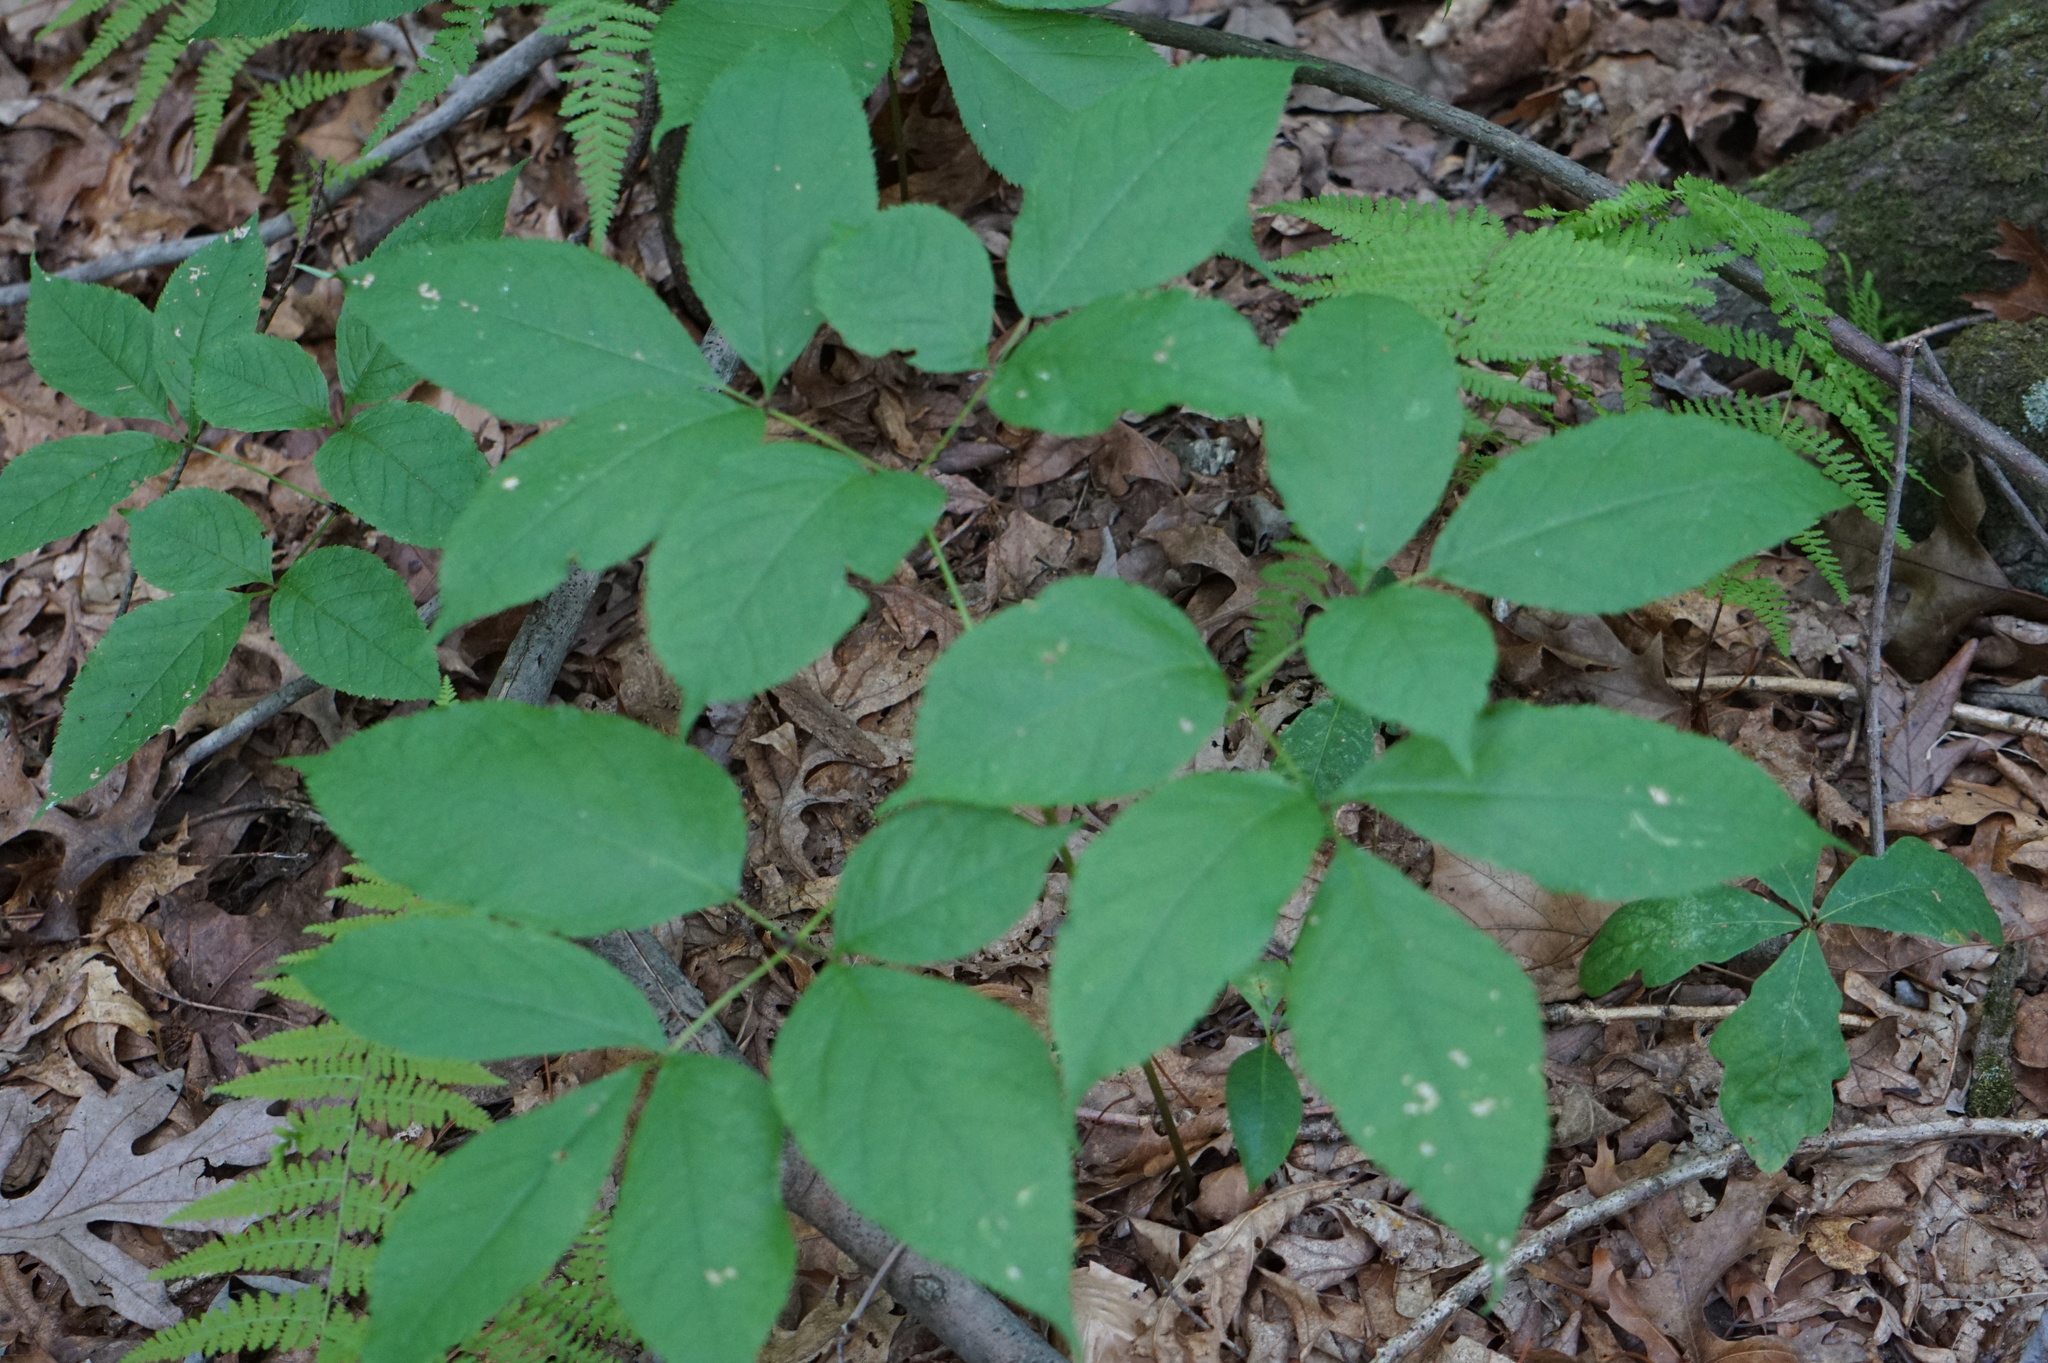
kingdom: Plantae
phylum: Tracheophyta
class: Magnoliopsida
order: Apiales
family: Araliaceae
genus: Aralia
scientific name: Aralia nudicaulis
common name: Wild sarsaparilla
